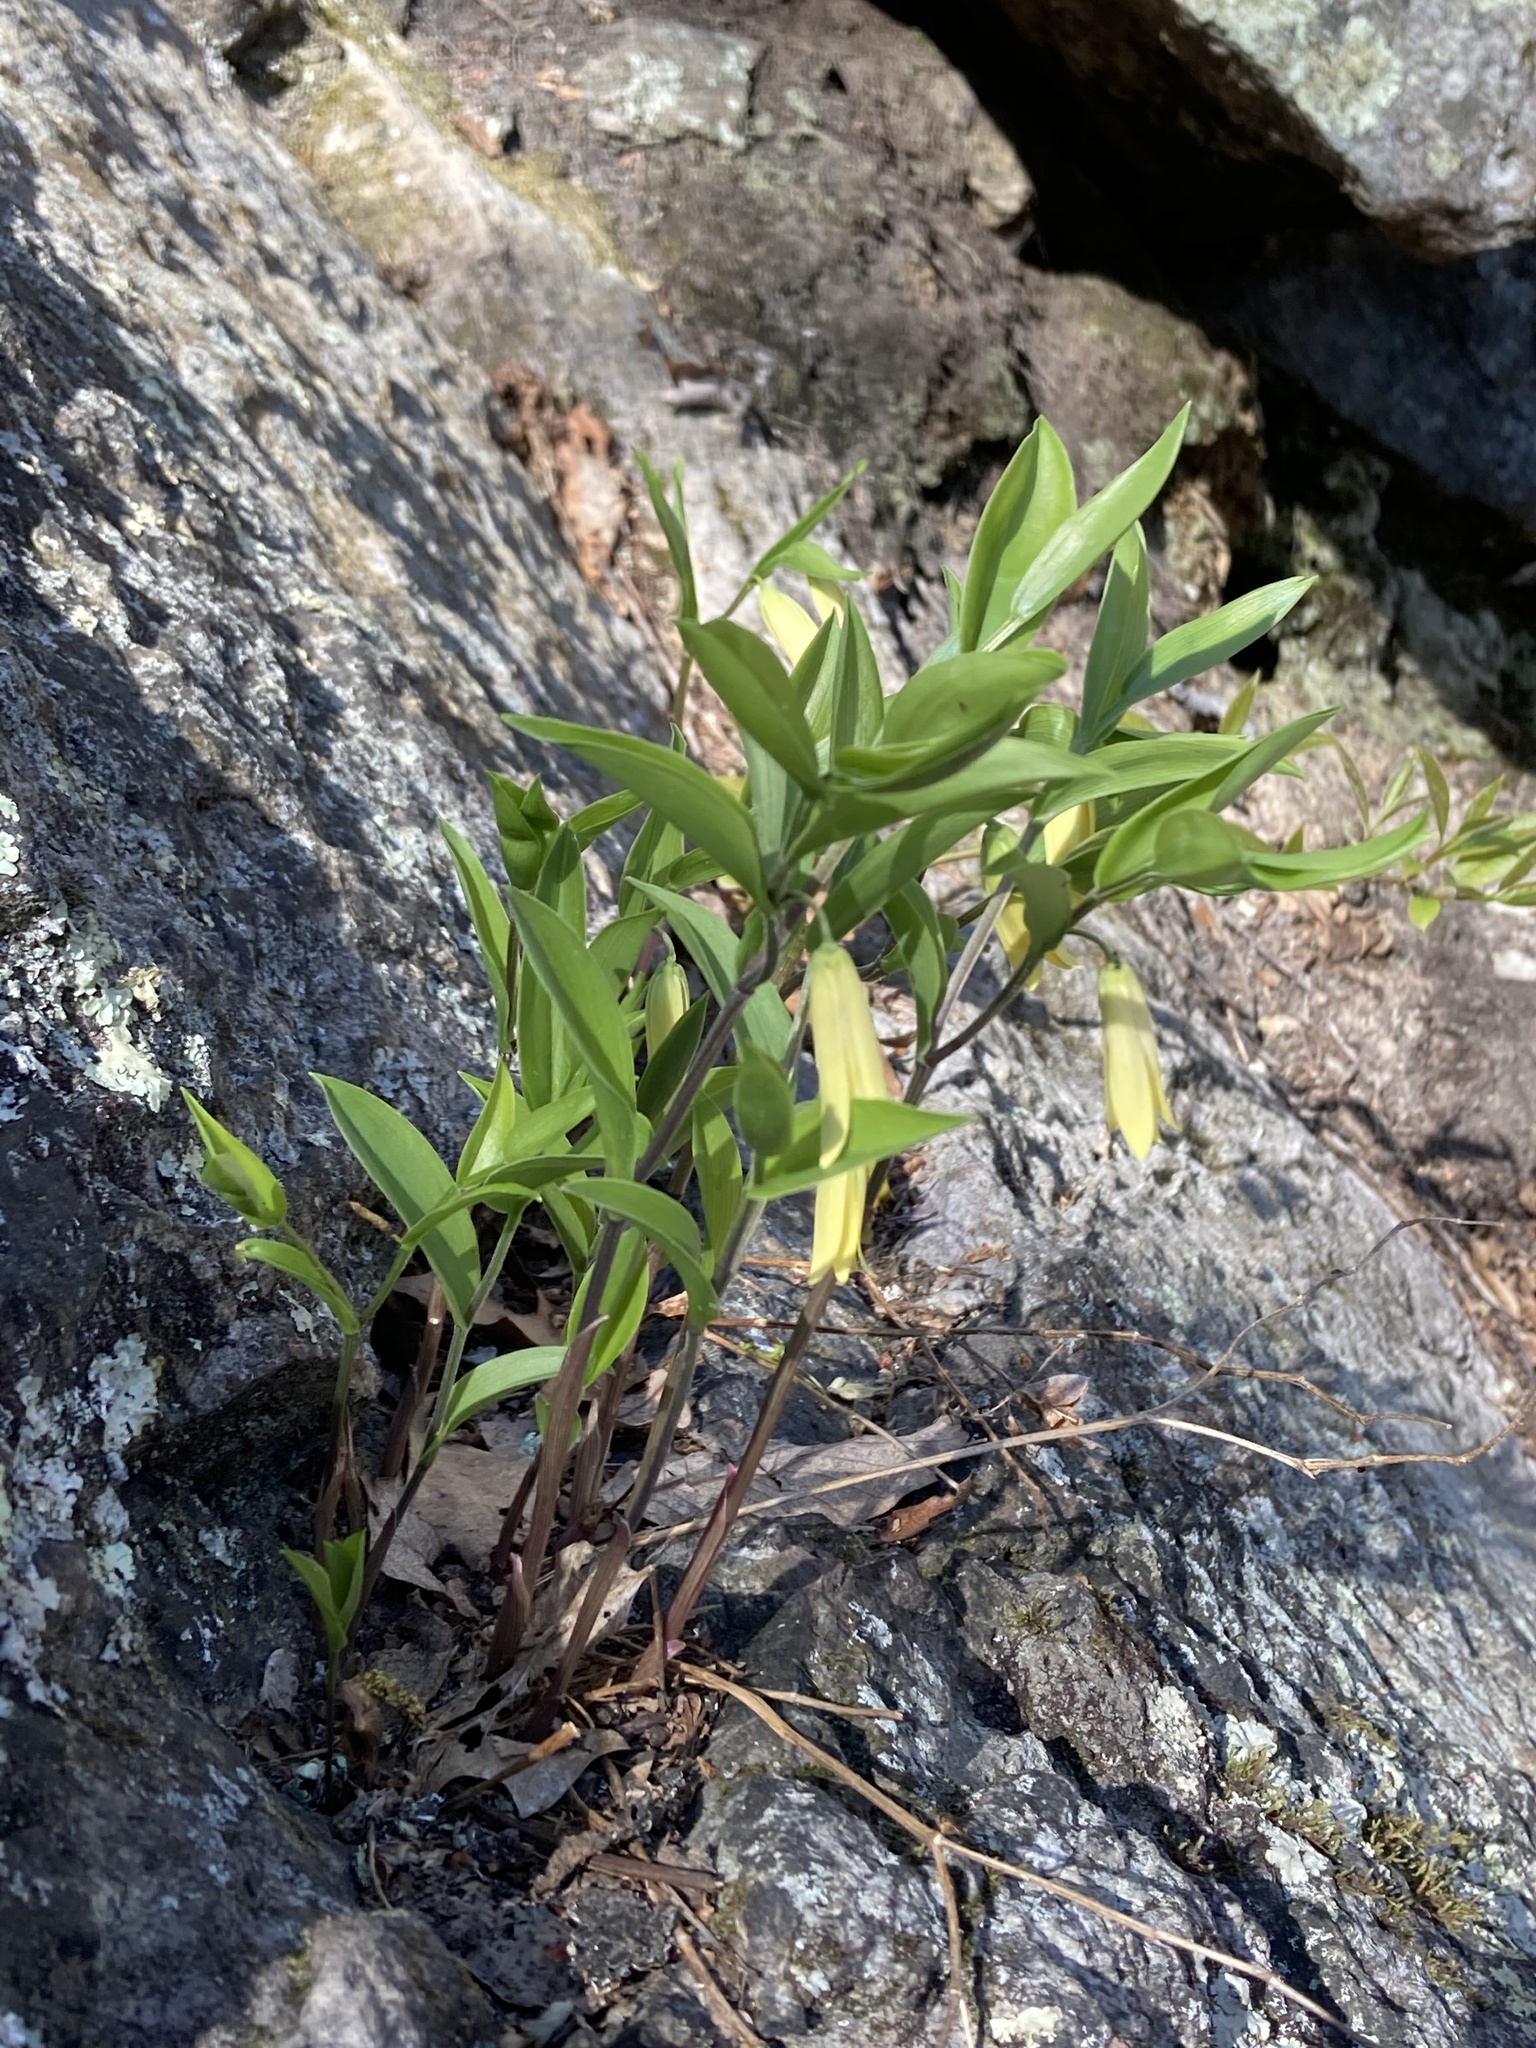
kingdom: Plantae
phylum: Tracheophyta
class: Liliopsida
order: Liliales
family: Colchicaceae
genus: Uvularia
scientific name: Uvularia puberula
